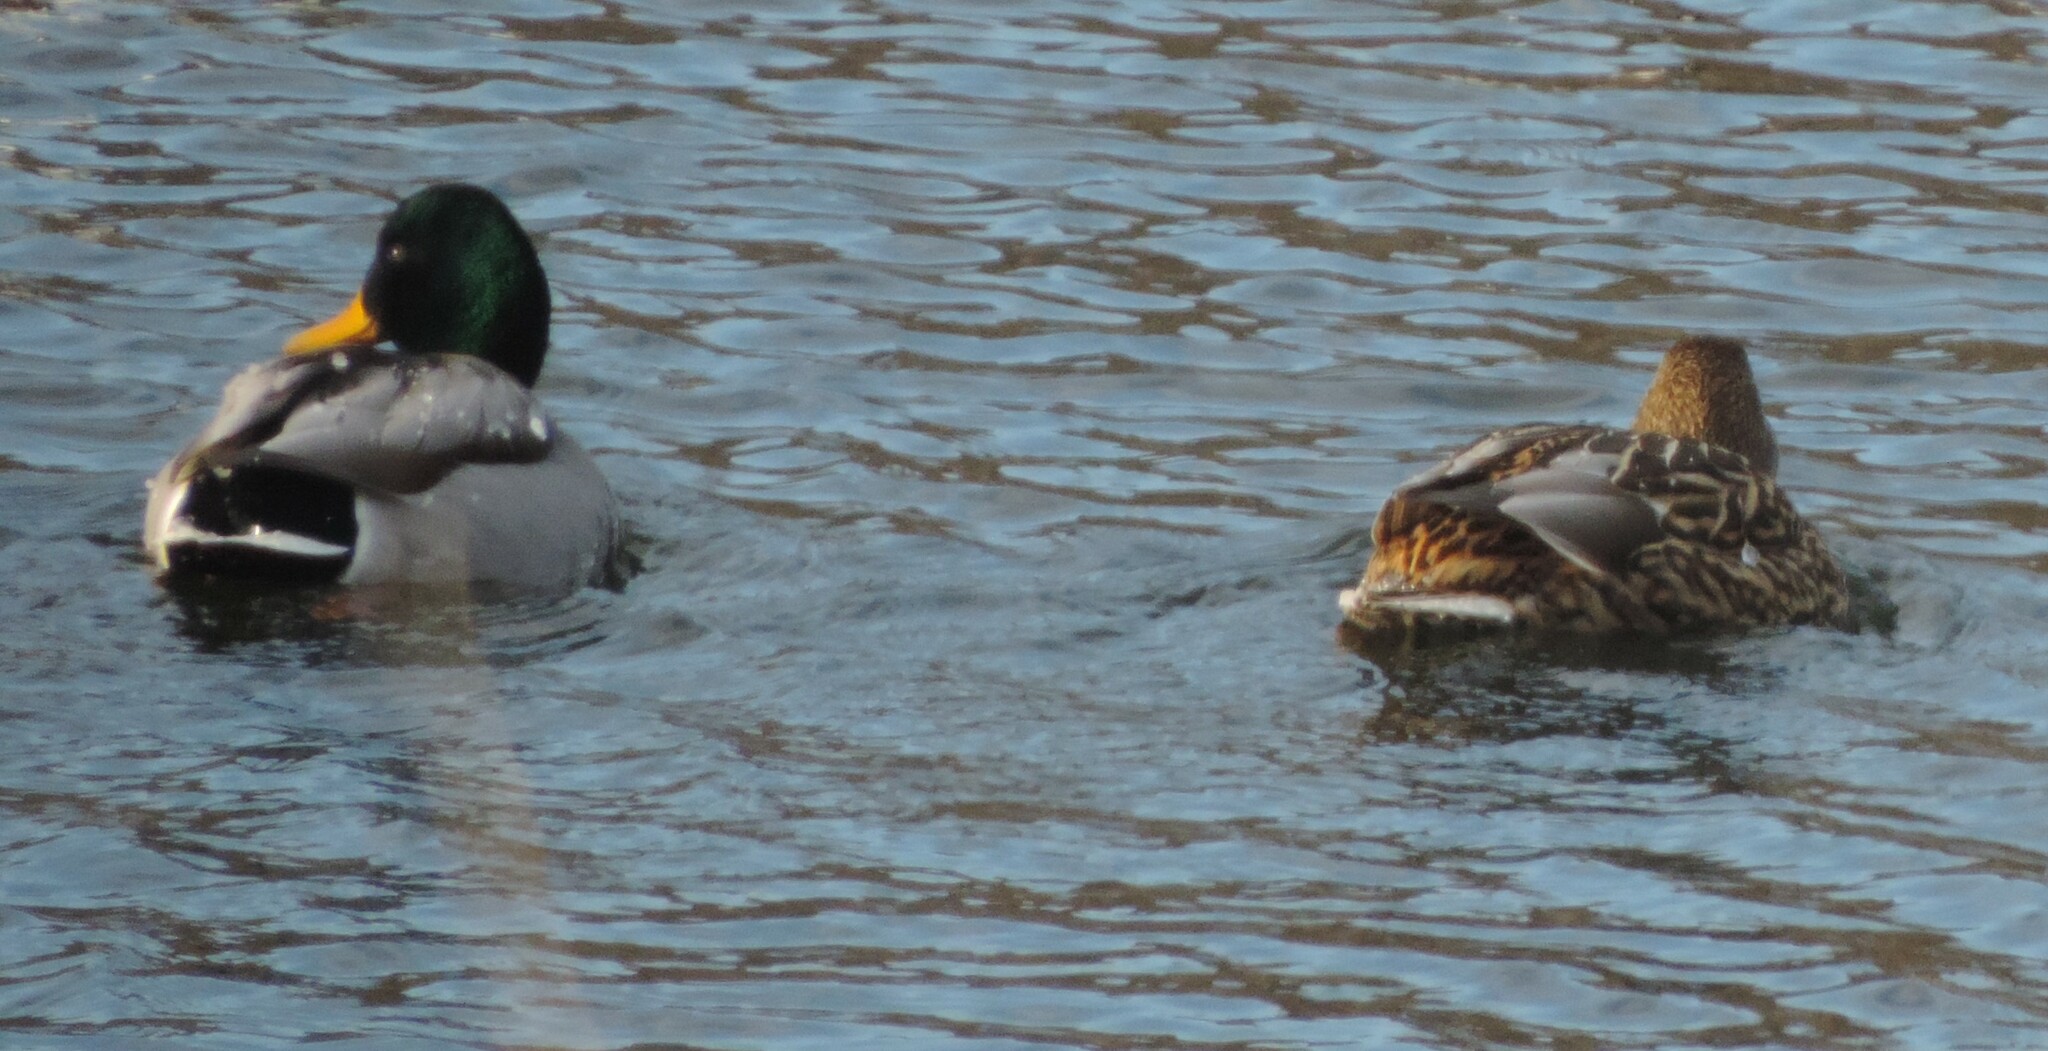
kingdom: Animalia
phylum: Chordata
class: Aves
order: Anseriformes
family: Anatidae
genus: Anas
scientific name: Anas platyrhynchos
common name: Mallard
